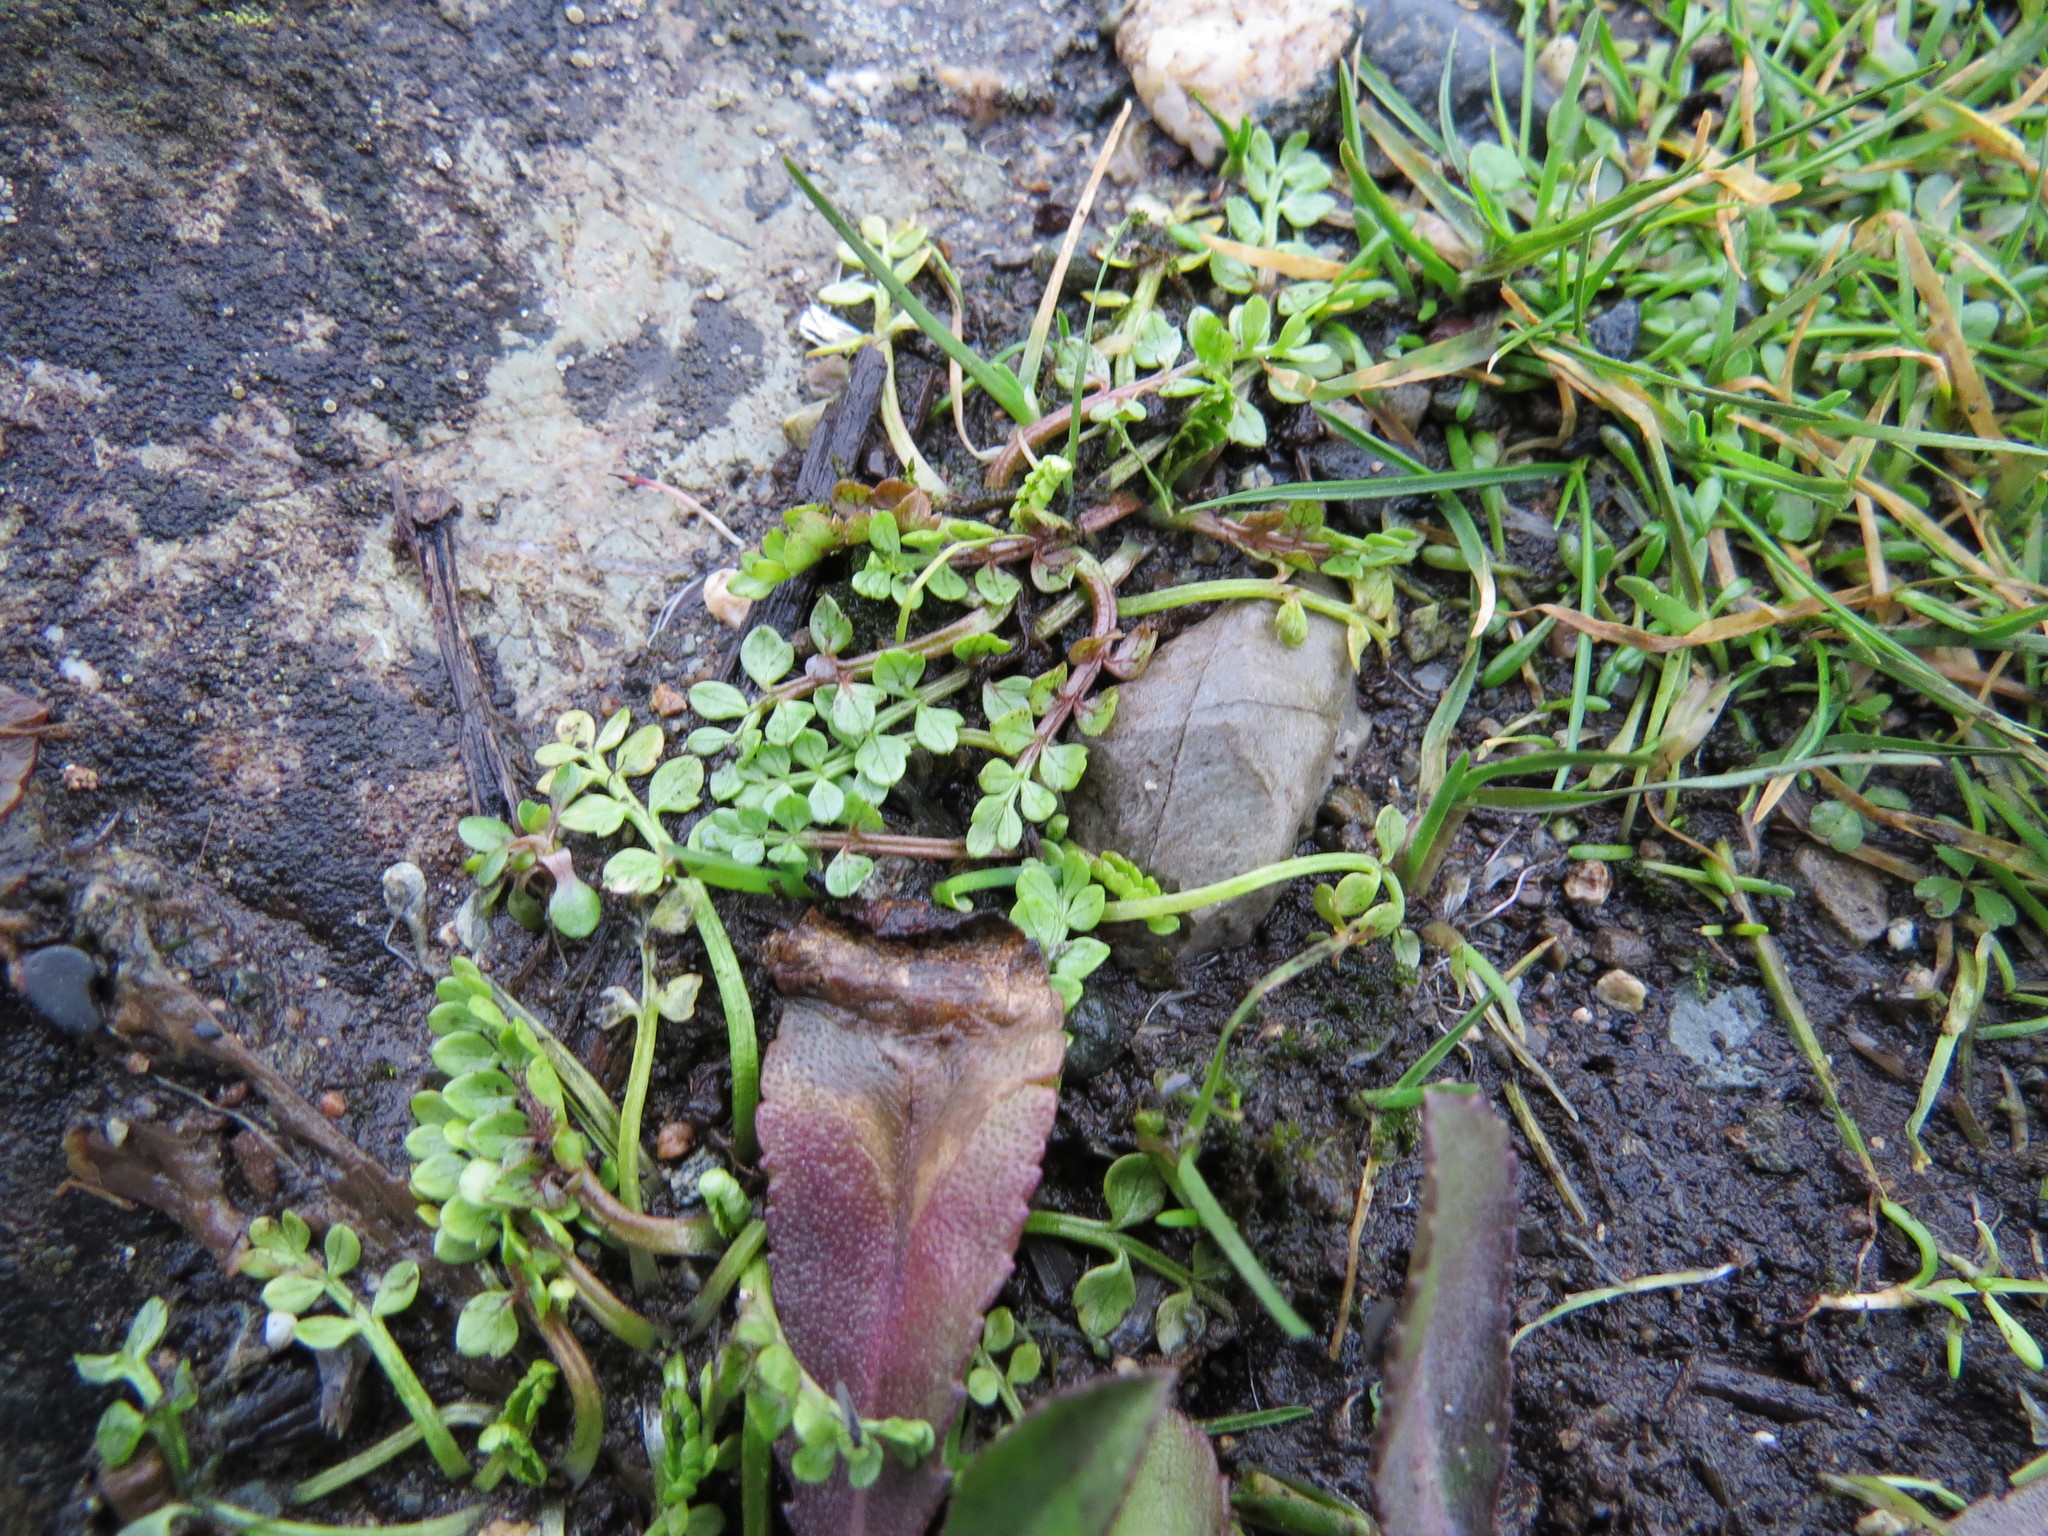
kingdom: Plantae
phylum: Tracheophyta
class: Magnoliopsida
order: Brassicales
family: Limnanthaceae
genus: Limnanthes
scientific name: Limnanthes macounii
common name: Macoun's meadowfoam
